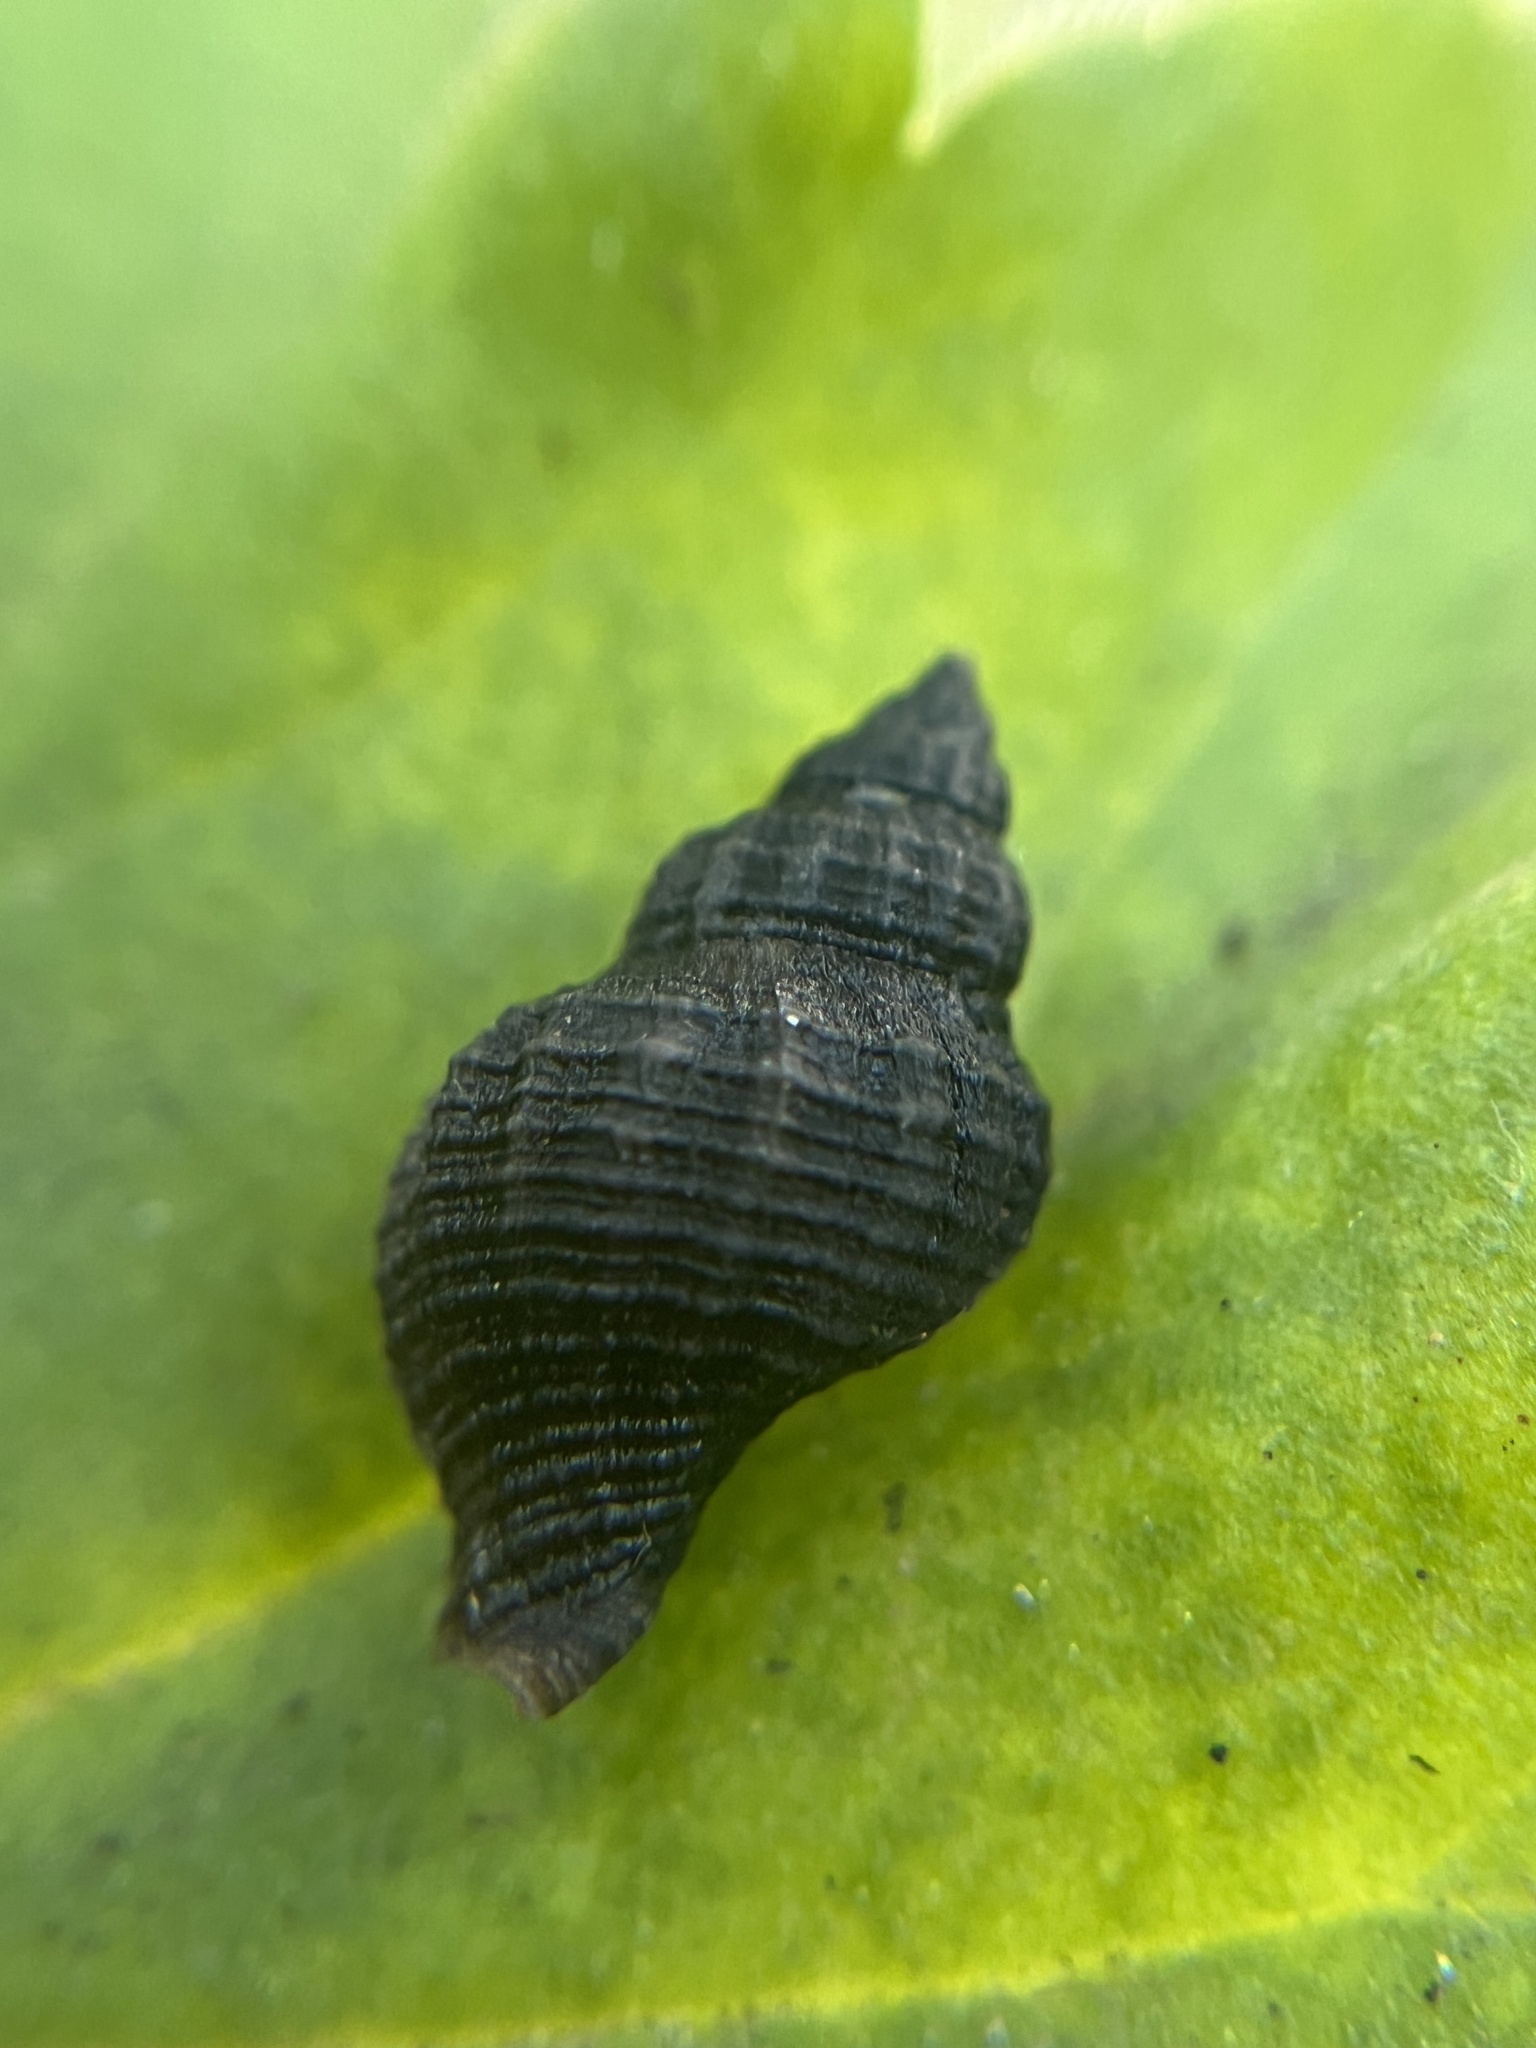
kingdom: Animalia
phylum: Mollusca
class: Gastropoda
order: Neogastropoda
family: Muricidae
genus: Urosalpinx
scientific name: Urosalpinx cinerea
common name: American sting winkle
